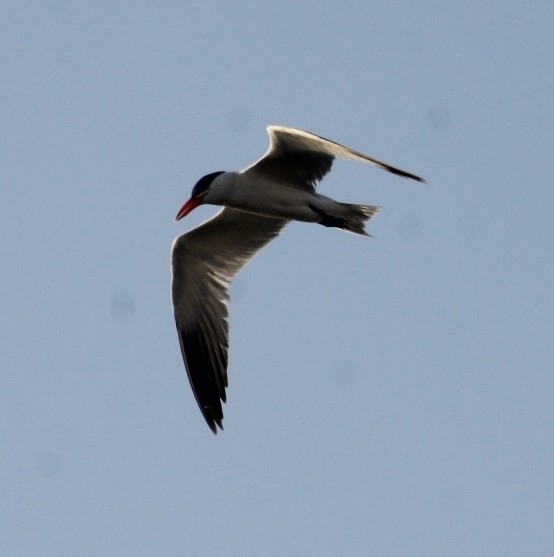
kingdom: Animalia
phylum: Chordata
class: Aves
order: Charadriiformes
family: Laridae
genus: Hydroprogne
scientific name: Hydroprogne caspia
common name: Caspian tern
